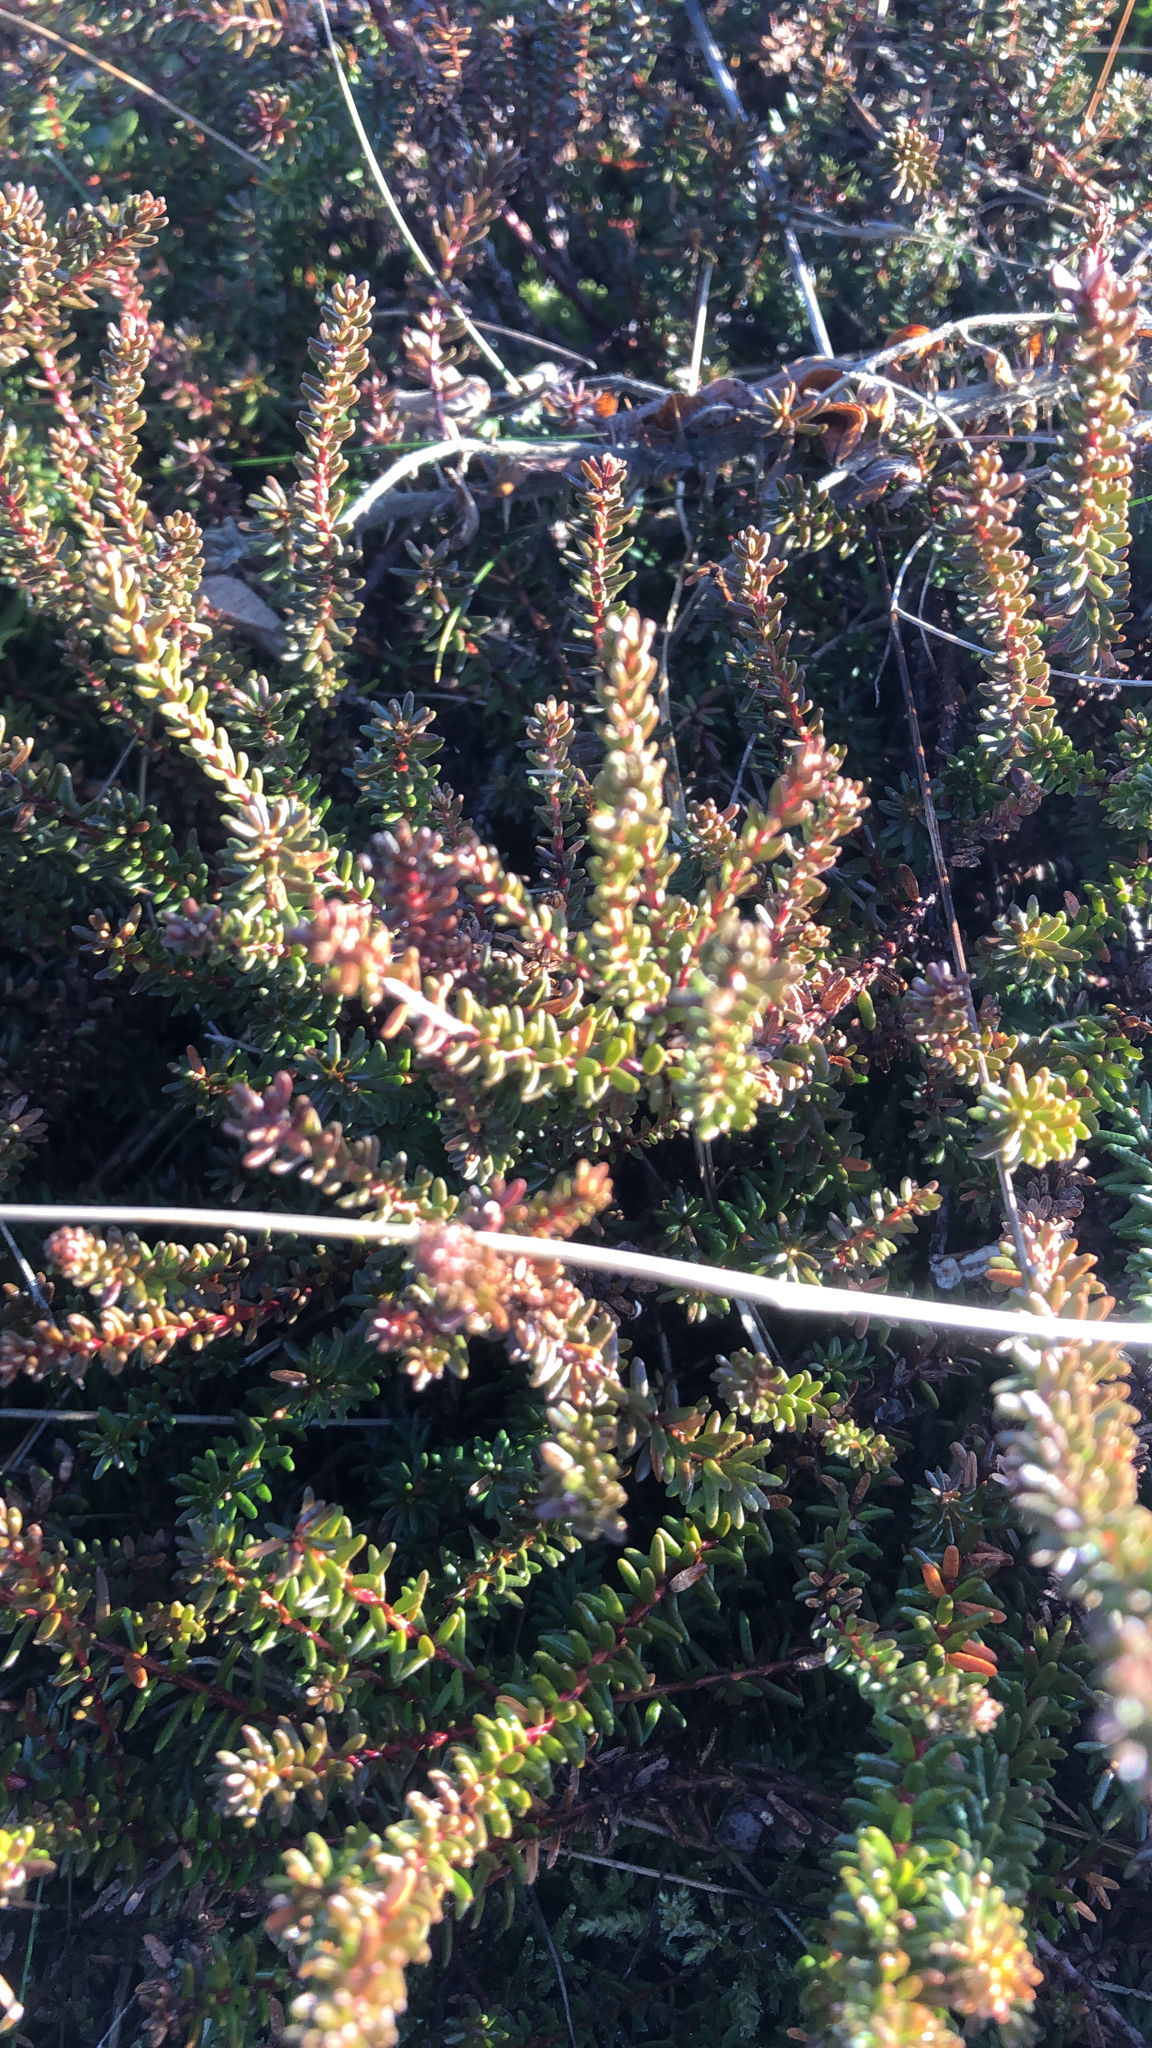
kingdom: Plantae
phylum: Tracheophyta
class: Magnoliopsida
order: Ericales
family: Ericaceae
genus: Empetrum
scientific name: Empetrum nigrum
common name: Black crowberry
